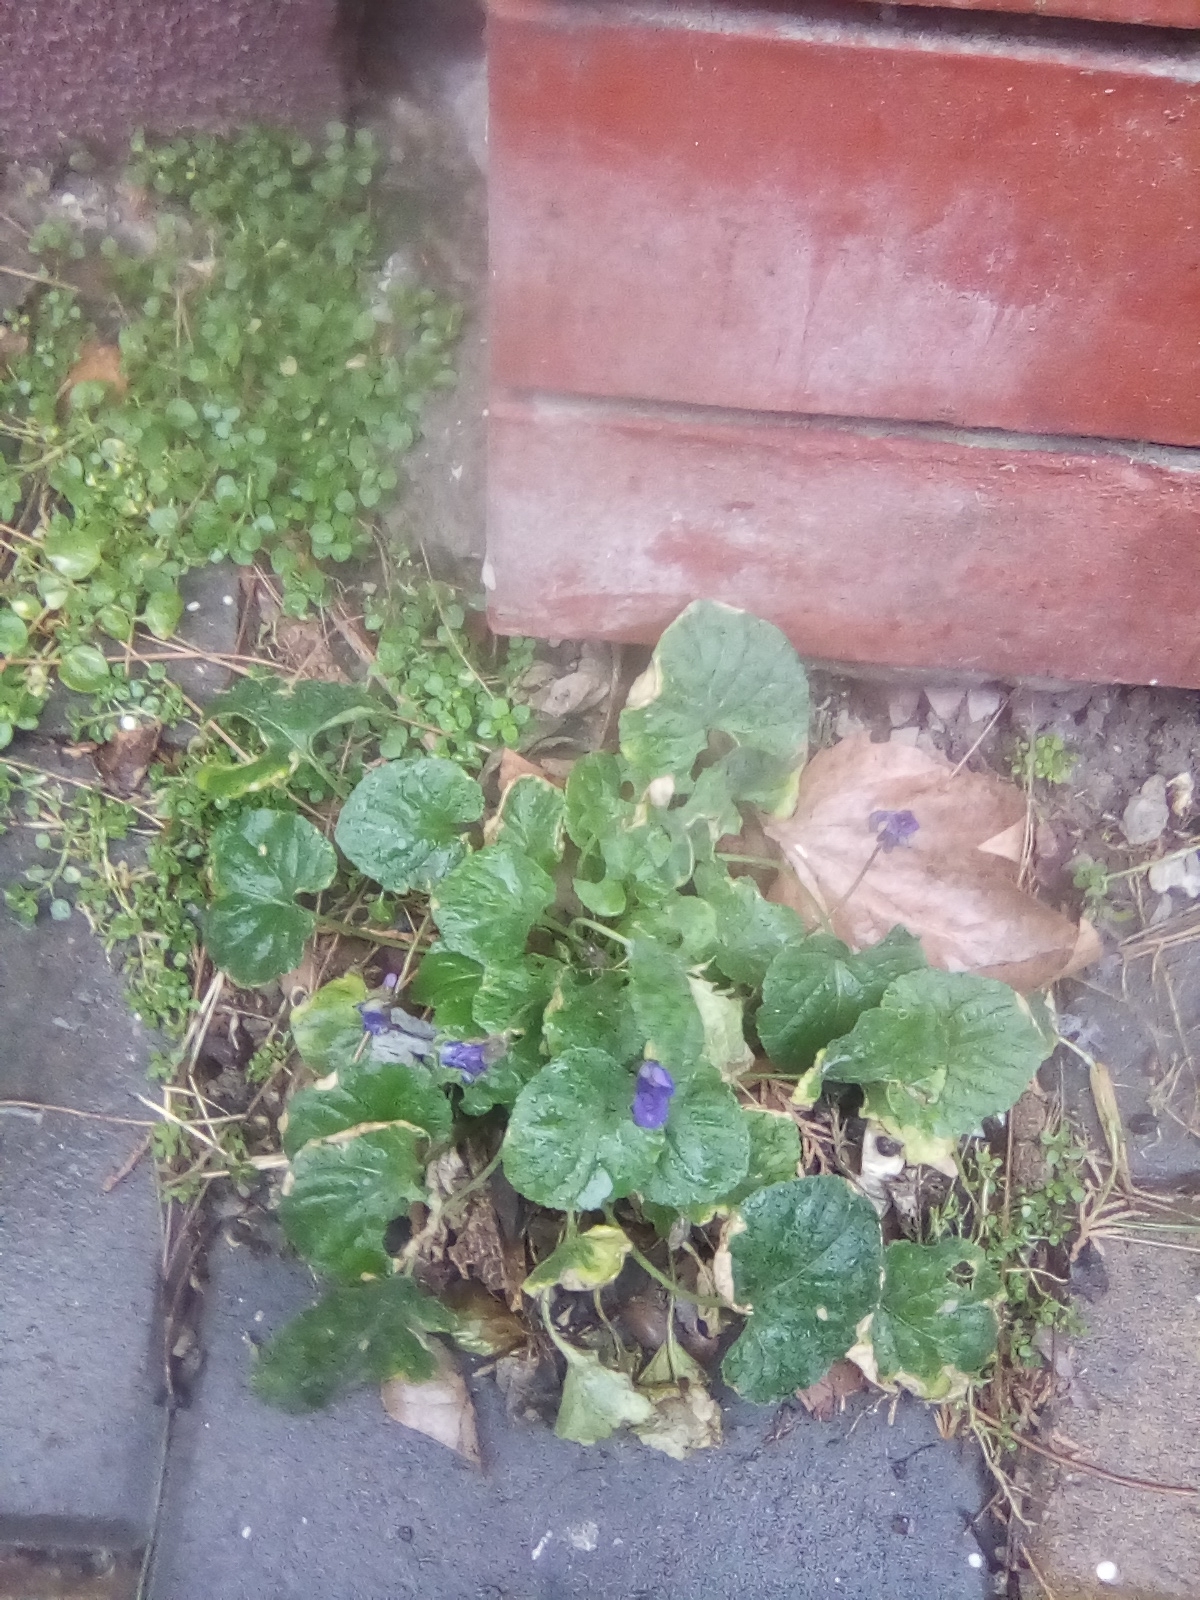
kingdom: Plantae
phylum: Tracheophyta
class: Magnoliopsida
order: Malpighiales
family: Violaceae
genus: Viola
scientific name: Viola odorata
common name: Sweet violet
